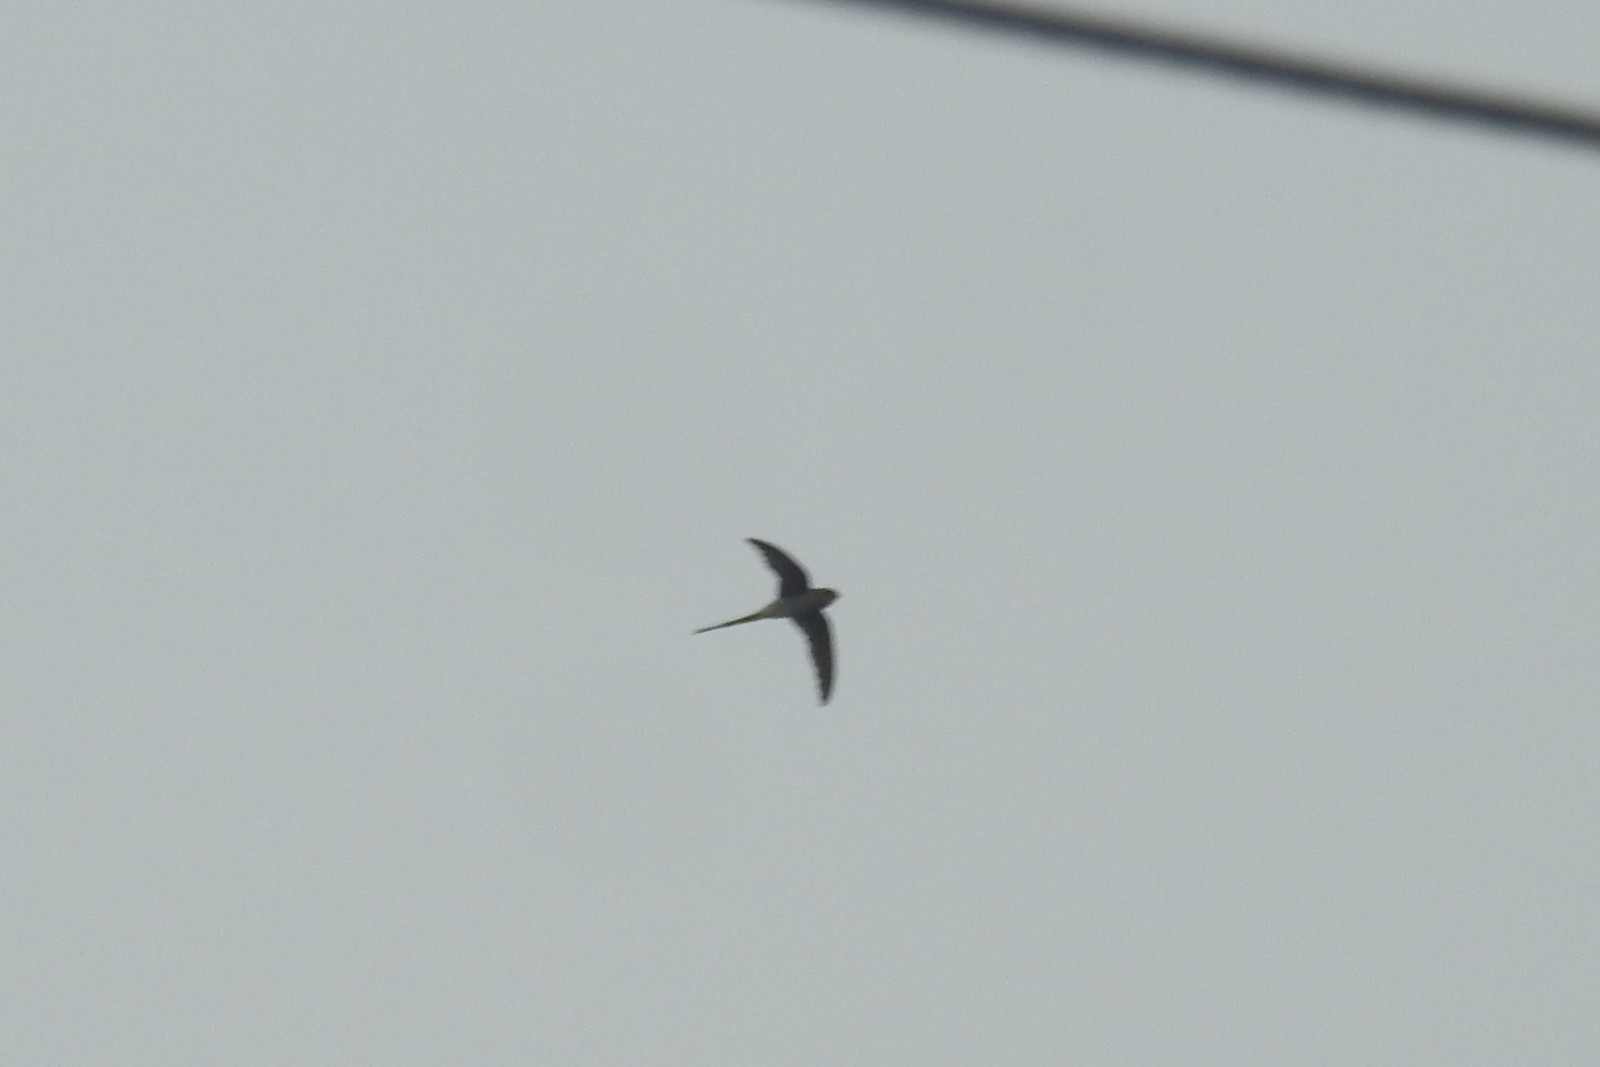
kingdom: Animalia
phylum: Chordata
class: Aves
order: Apodiformes
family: Hemiprocnidae
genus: Hemiprocne
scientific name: Hemiprocne coronata
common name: Crested treeswift
